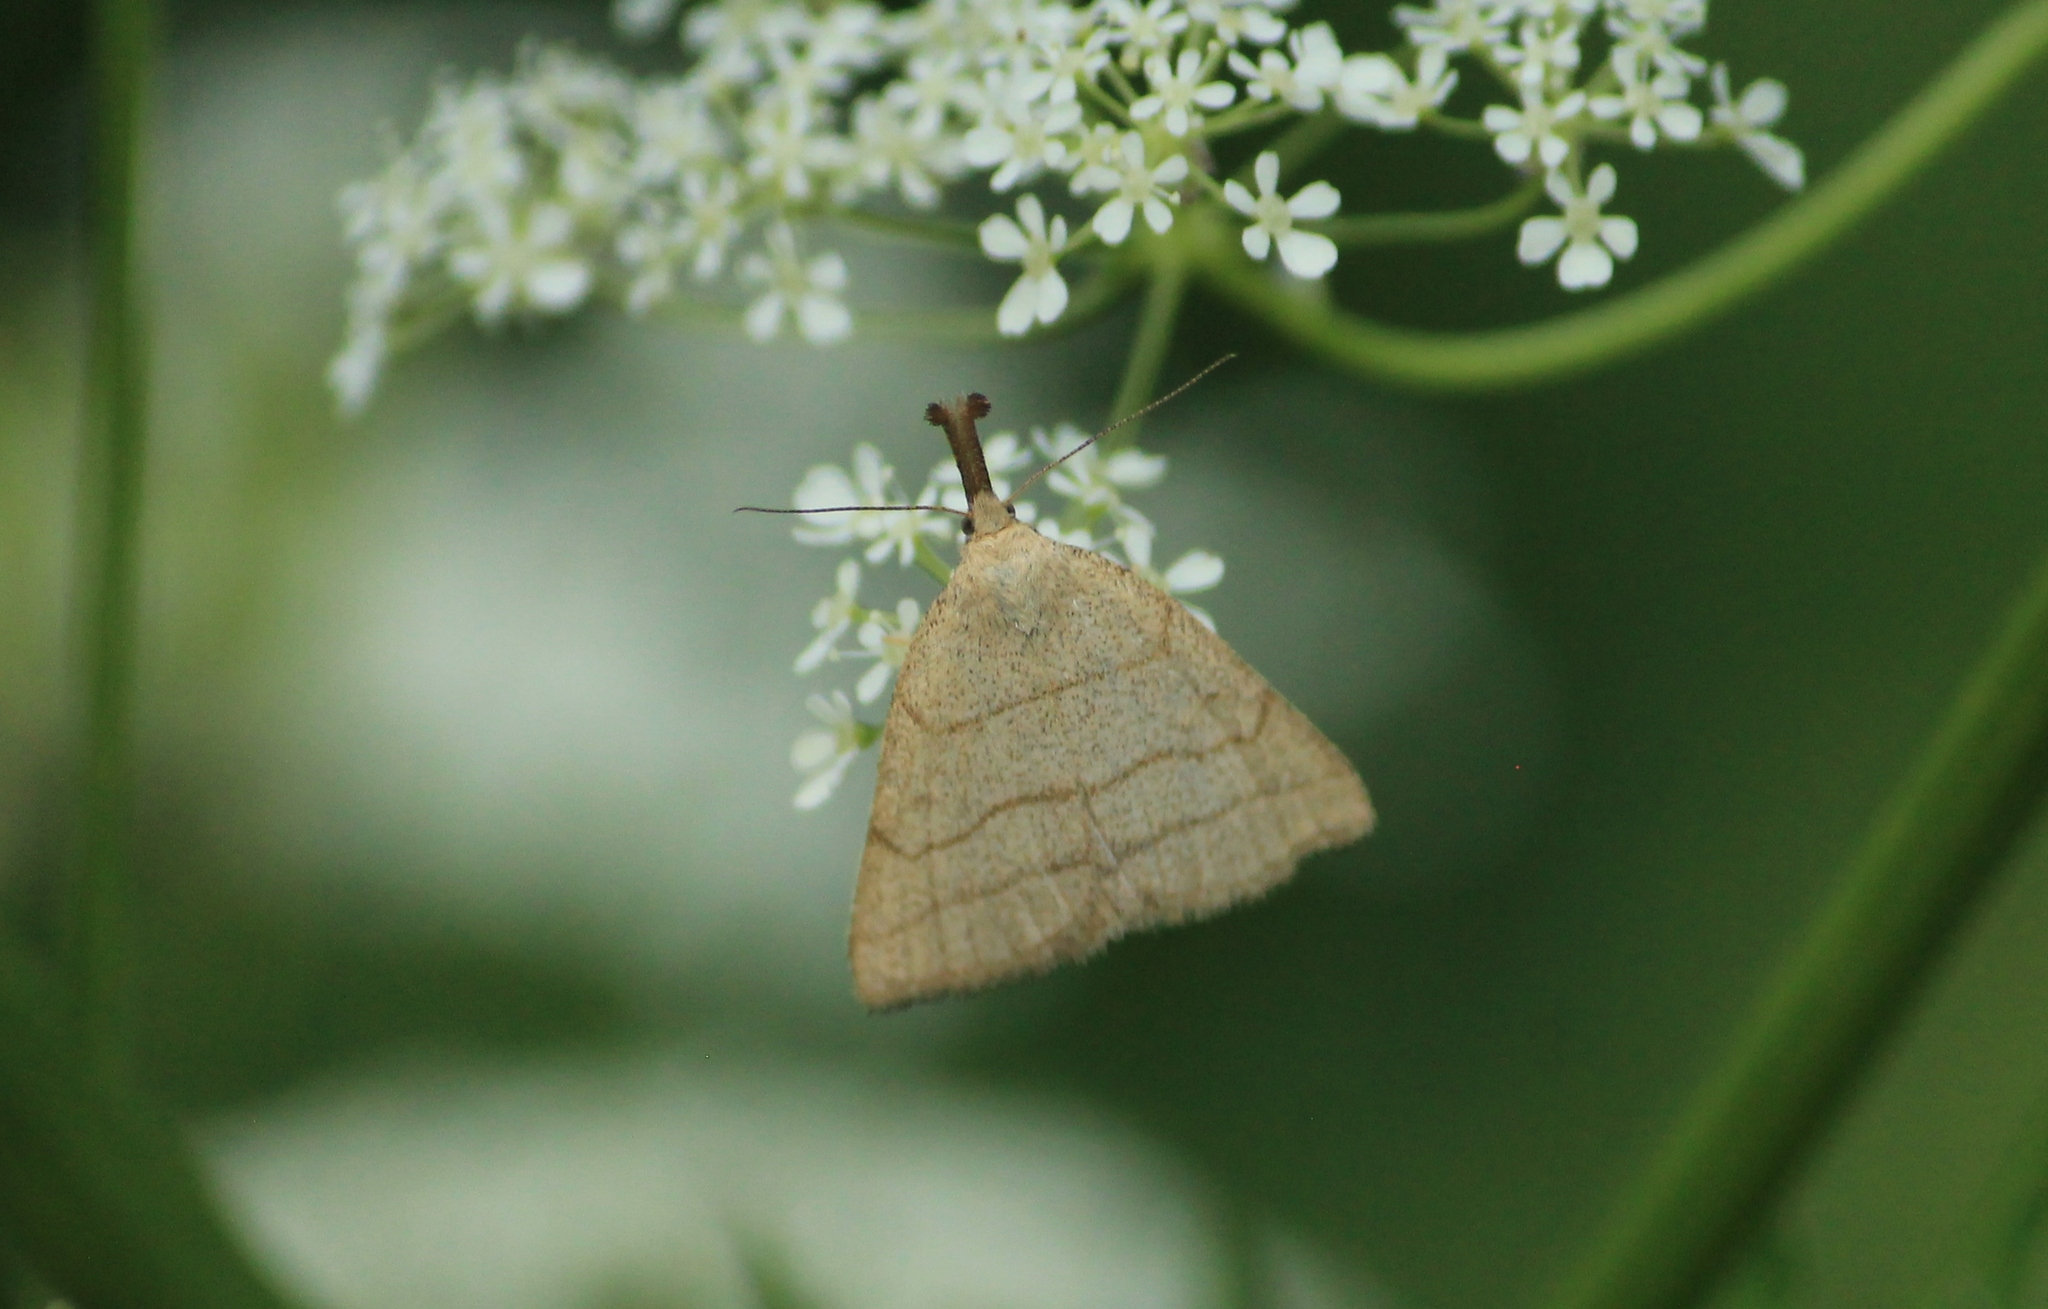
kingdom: Animalia
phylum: Arthropoda
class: Insecta
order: Lepidoptera
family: Erebidae
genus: Polypogon
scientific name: Polypogon tentacularia
